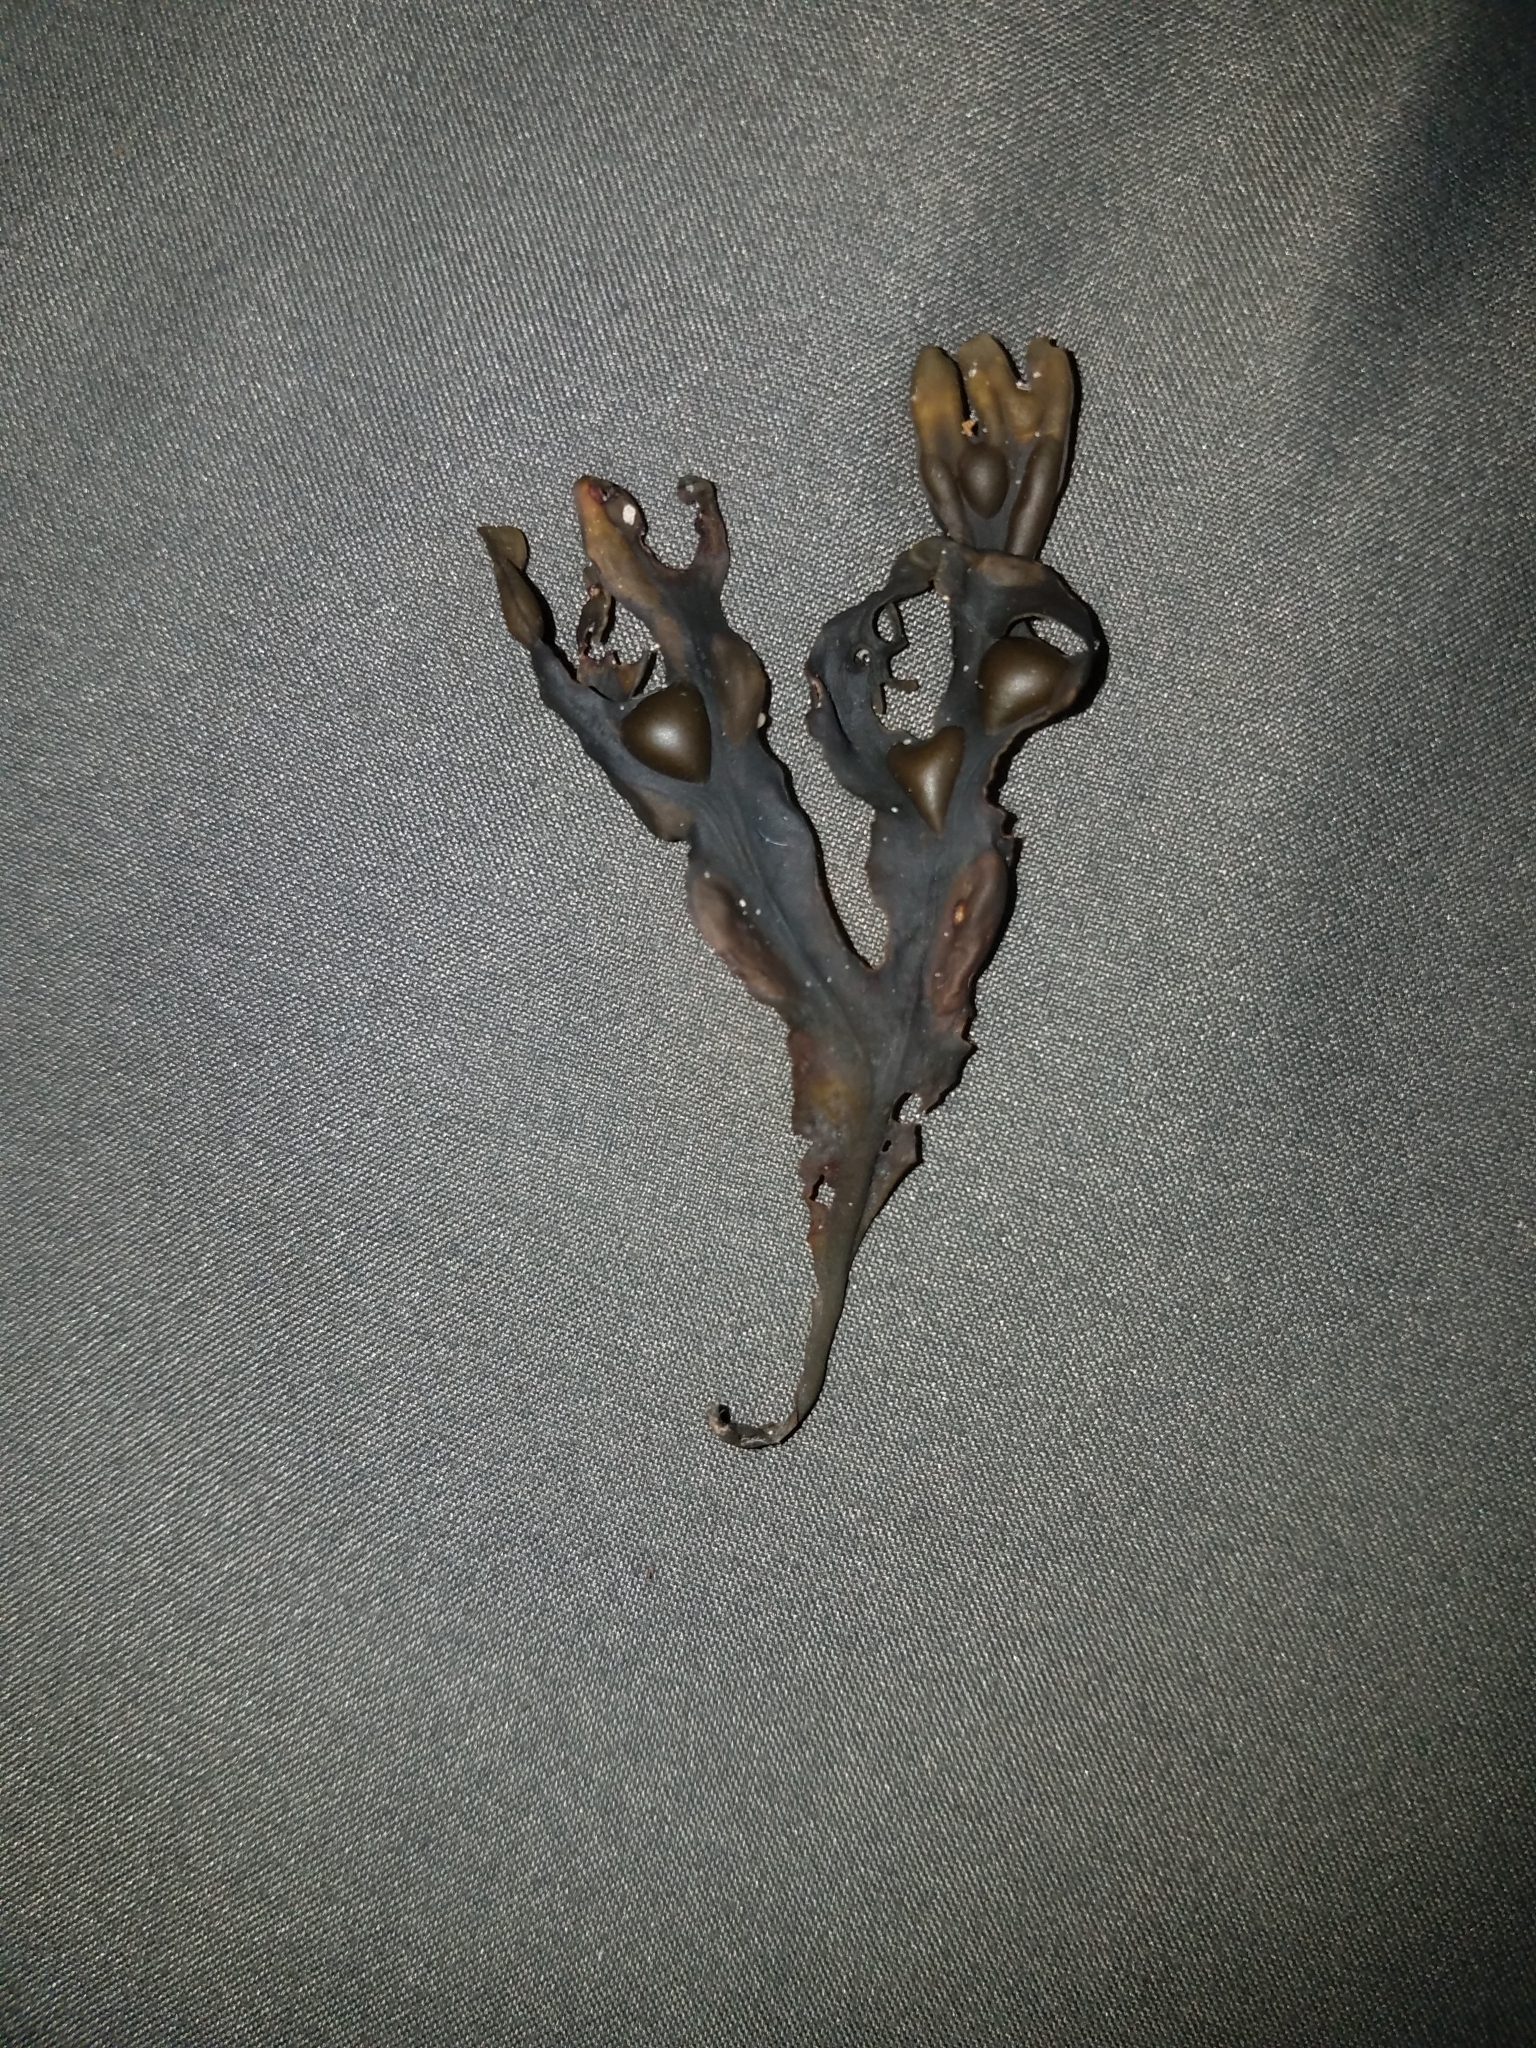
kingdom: Chromista
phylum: Ochrophyta
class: Phaeophyceae
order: Fucales
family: Fucaceae
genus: Fucus
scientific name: Fucus vesiculosus
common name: Bladder wrack
